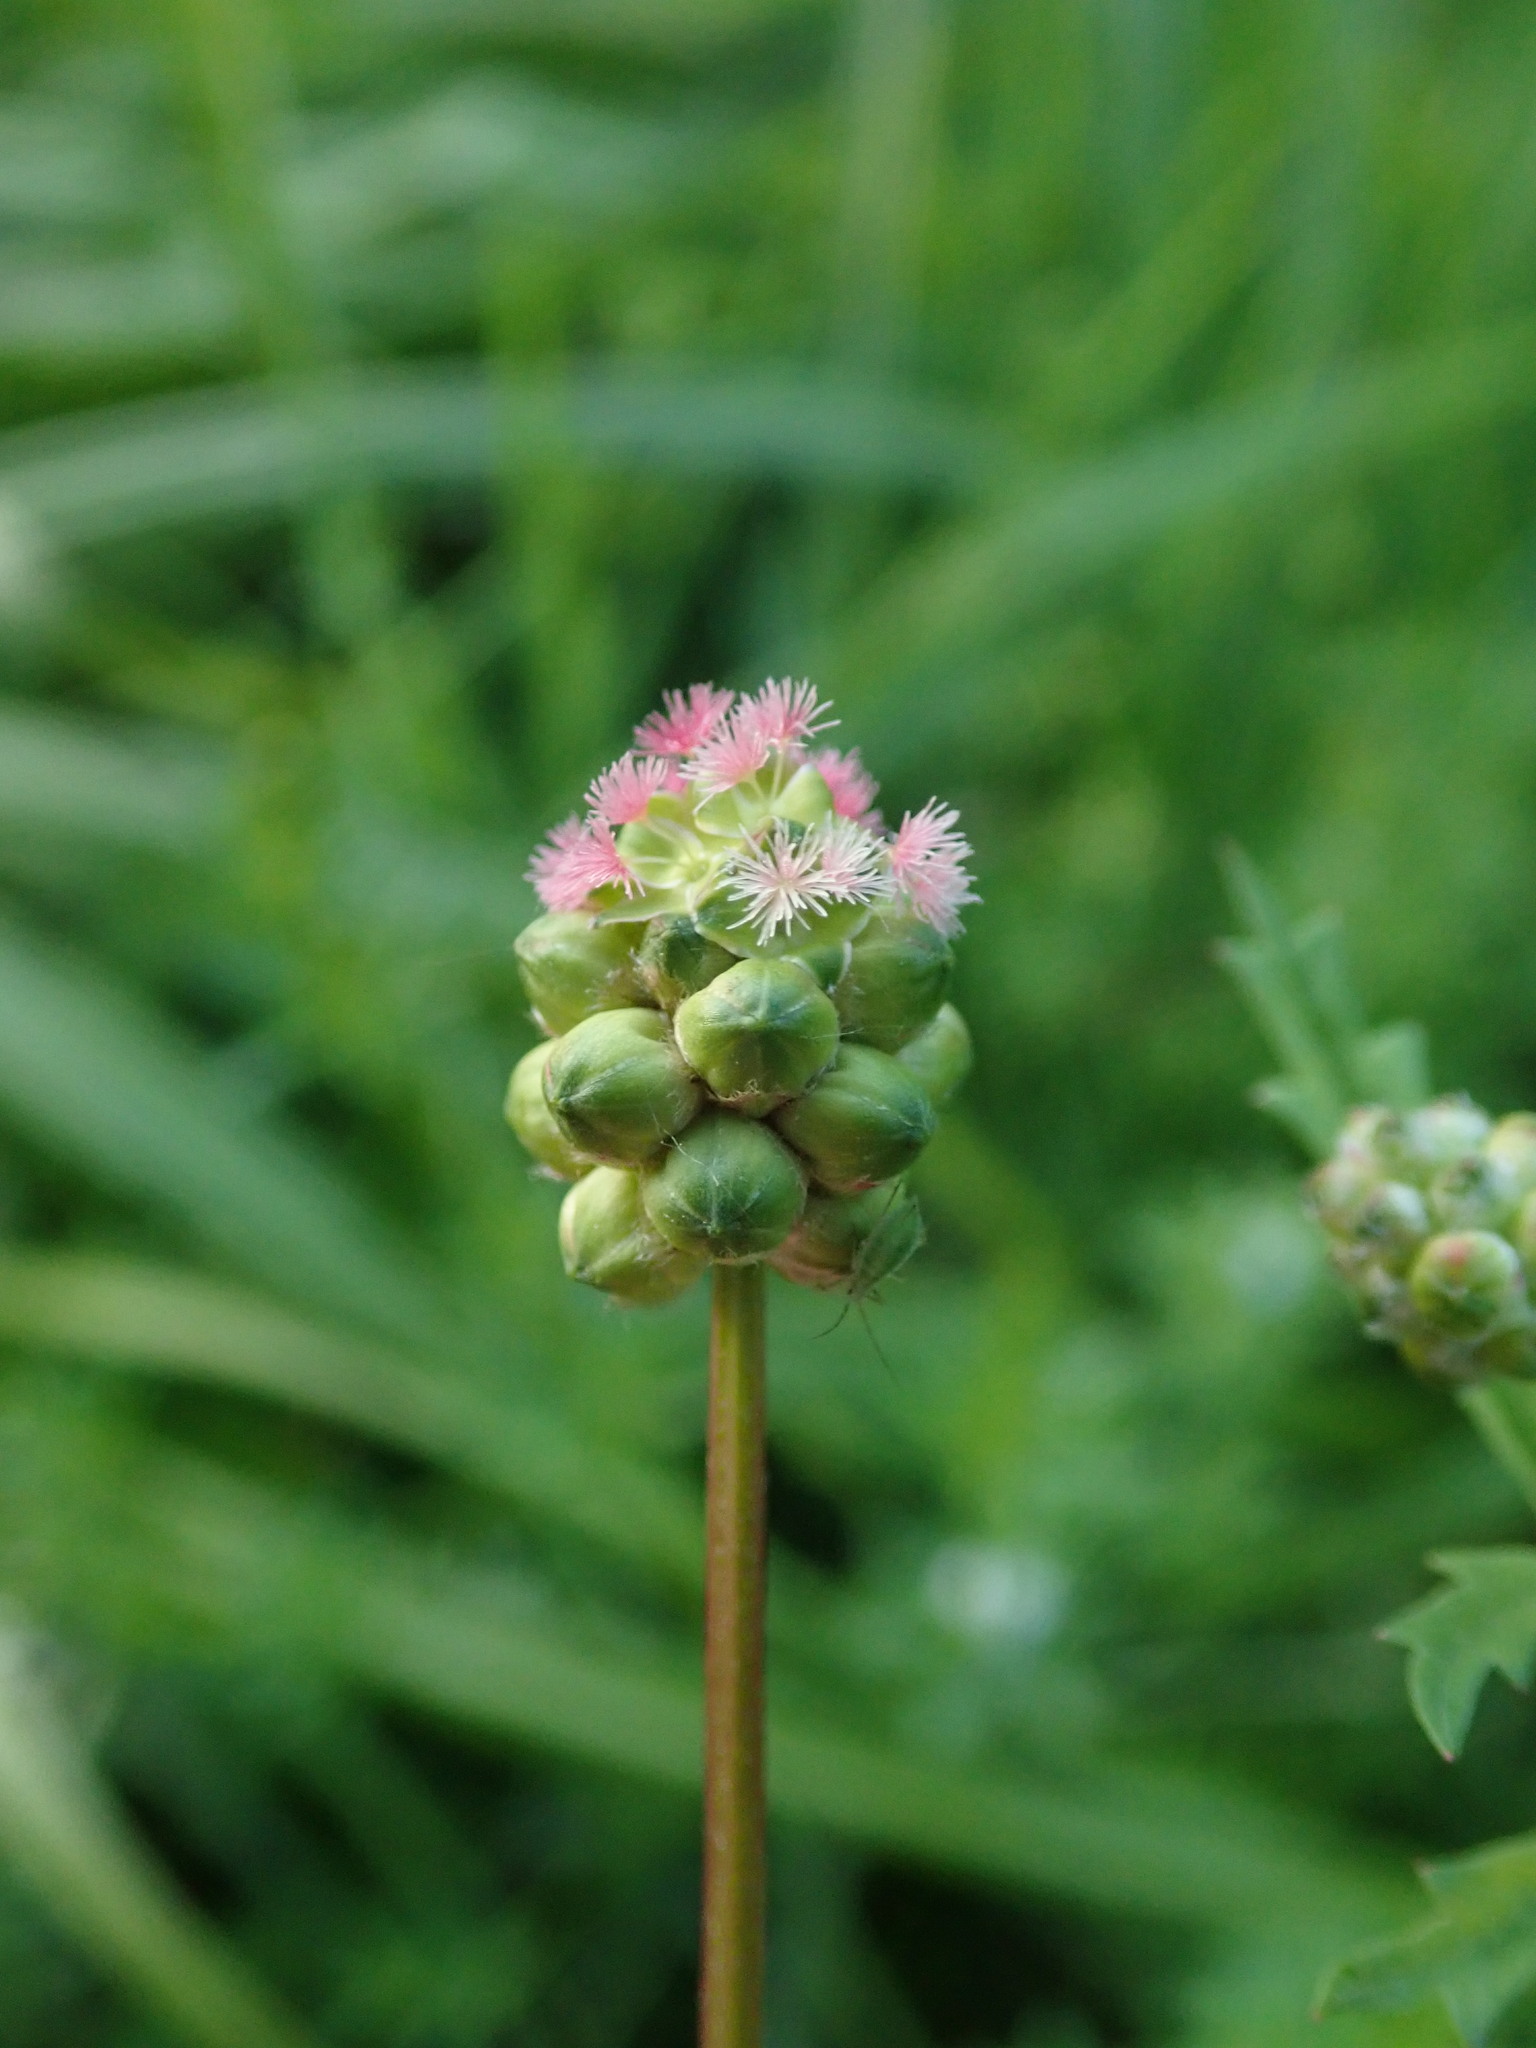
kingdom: Plantae
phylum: Tracheophyta
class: Magnoliopsida
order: Rosales
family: Rosaceae
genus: Poterium
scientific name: Poterium sanguisorba
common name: Salad burnet
